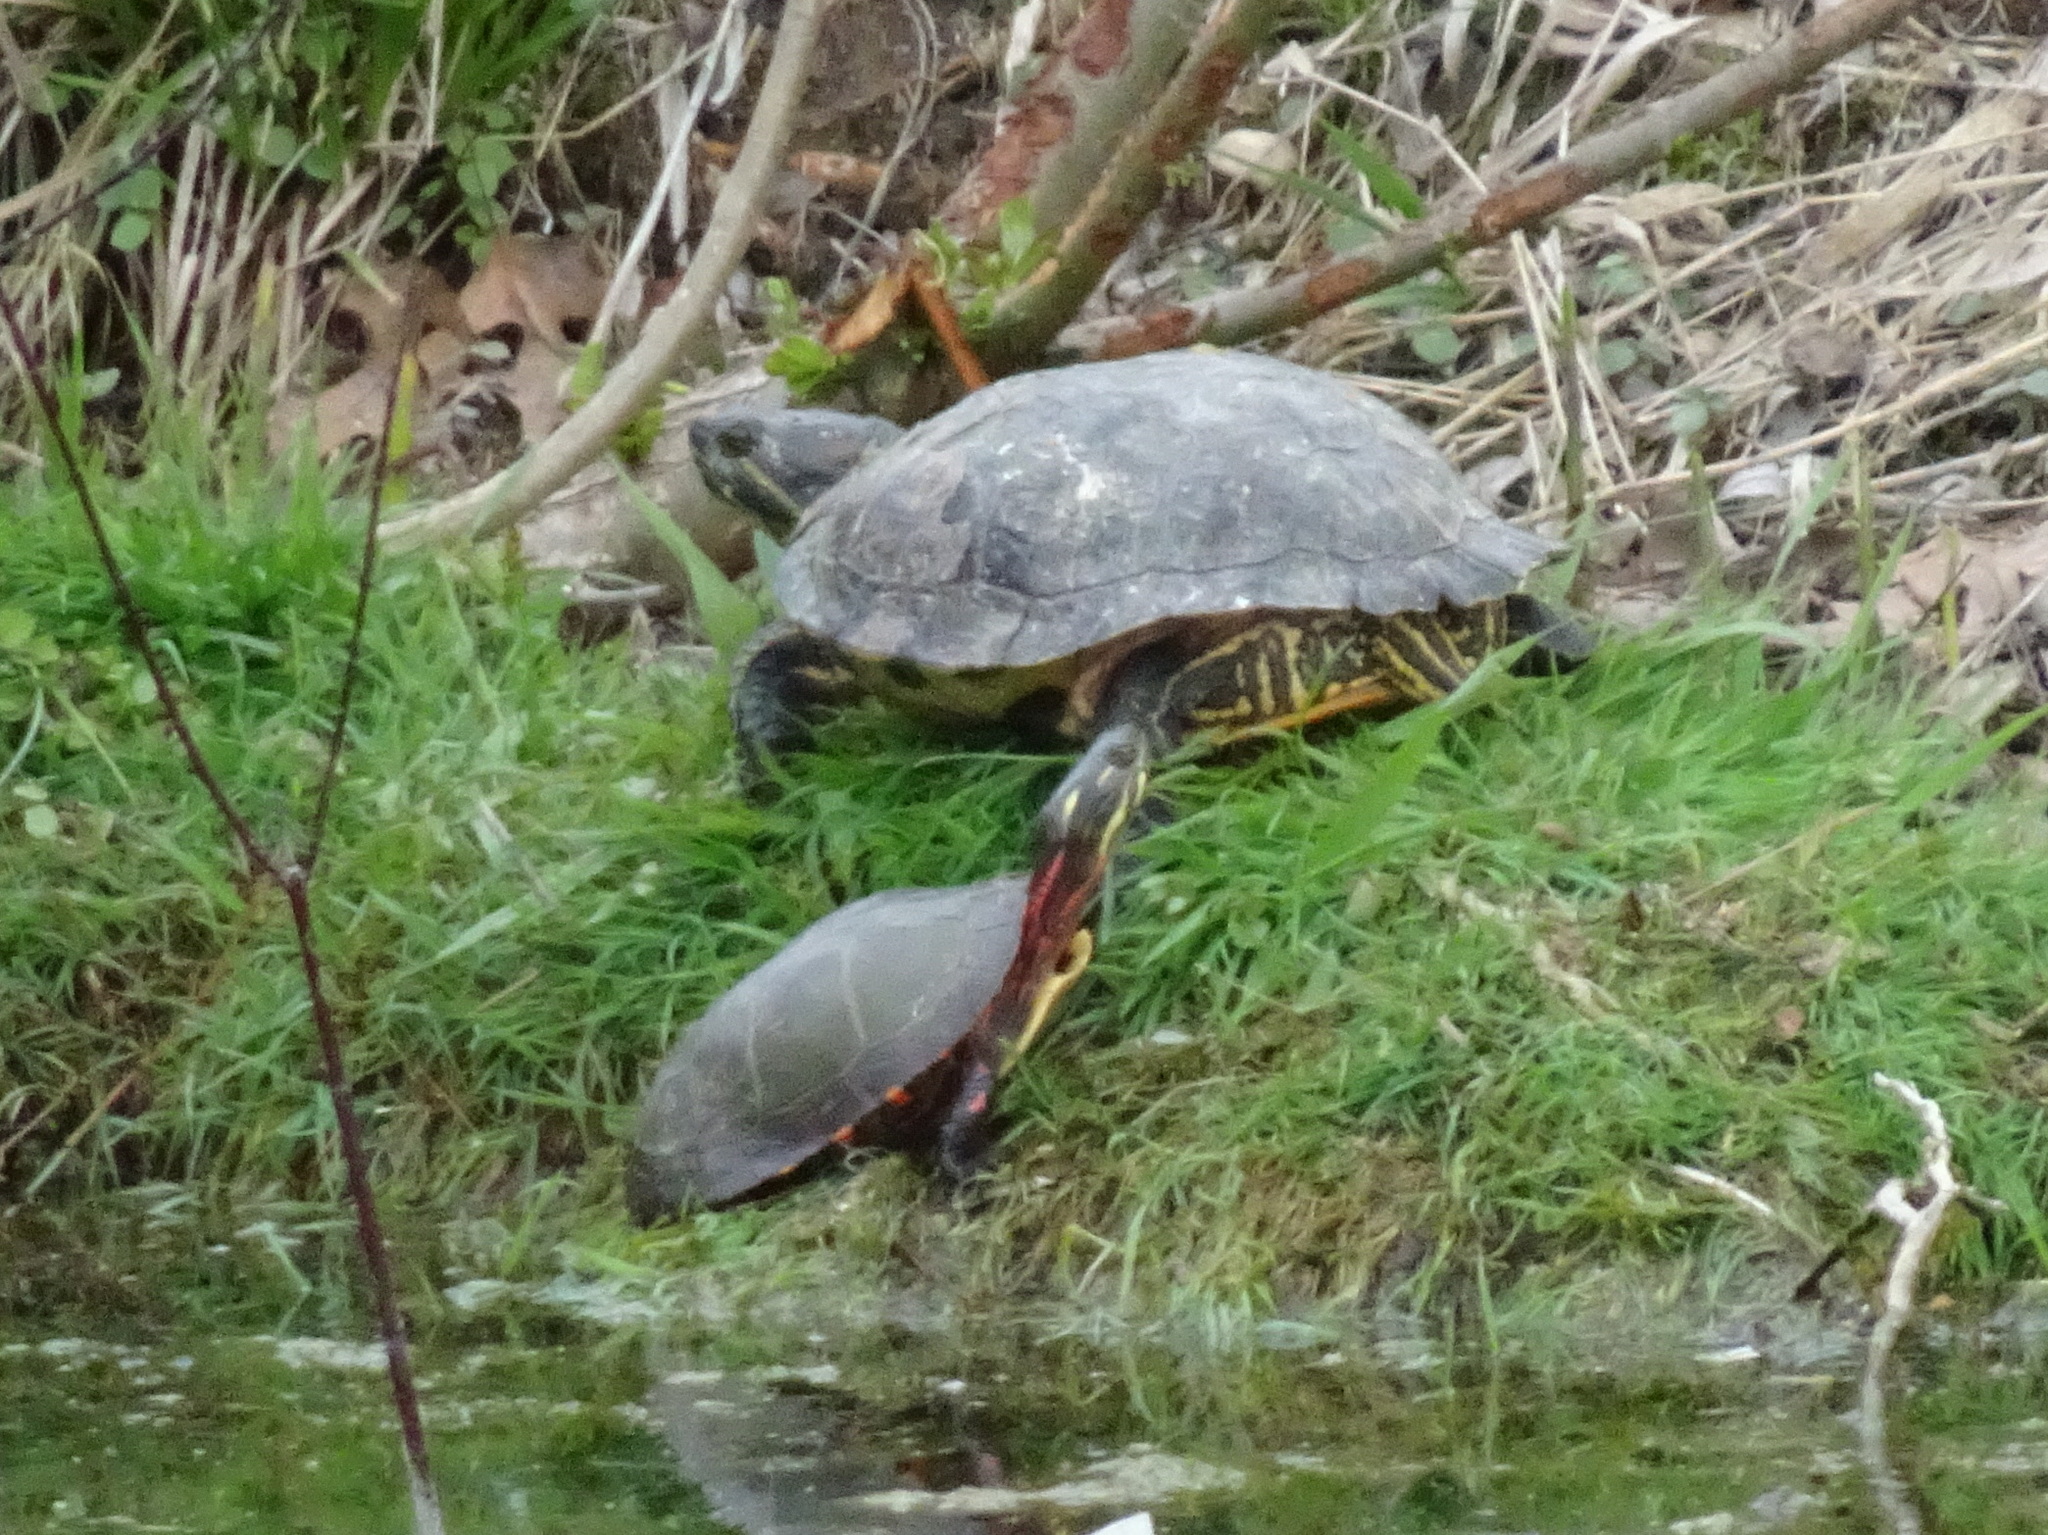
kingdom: Animalia
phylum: Chordata
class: Testudines
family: Emydidae
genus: Trachemys
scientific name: Trachemys scripta
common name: Slider
